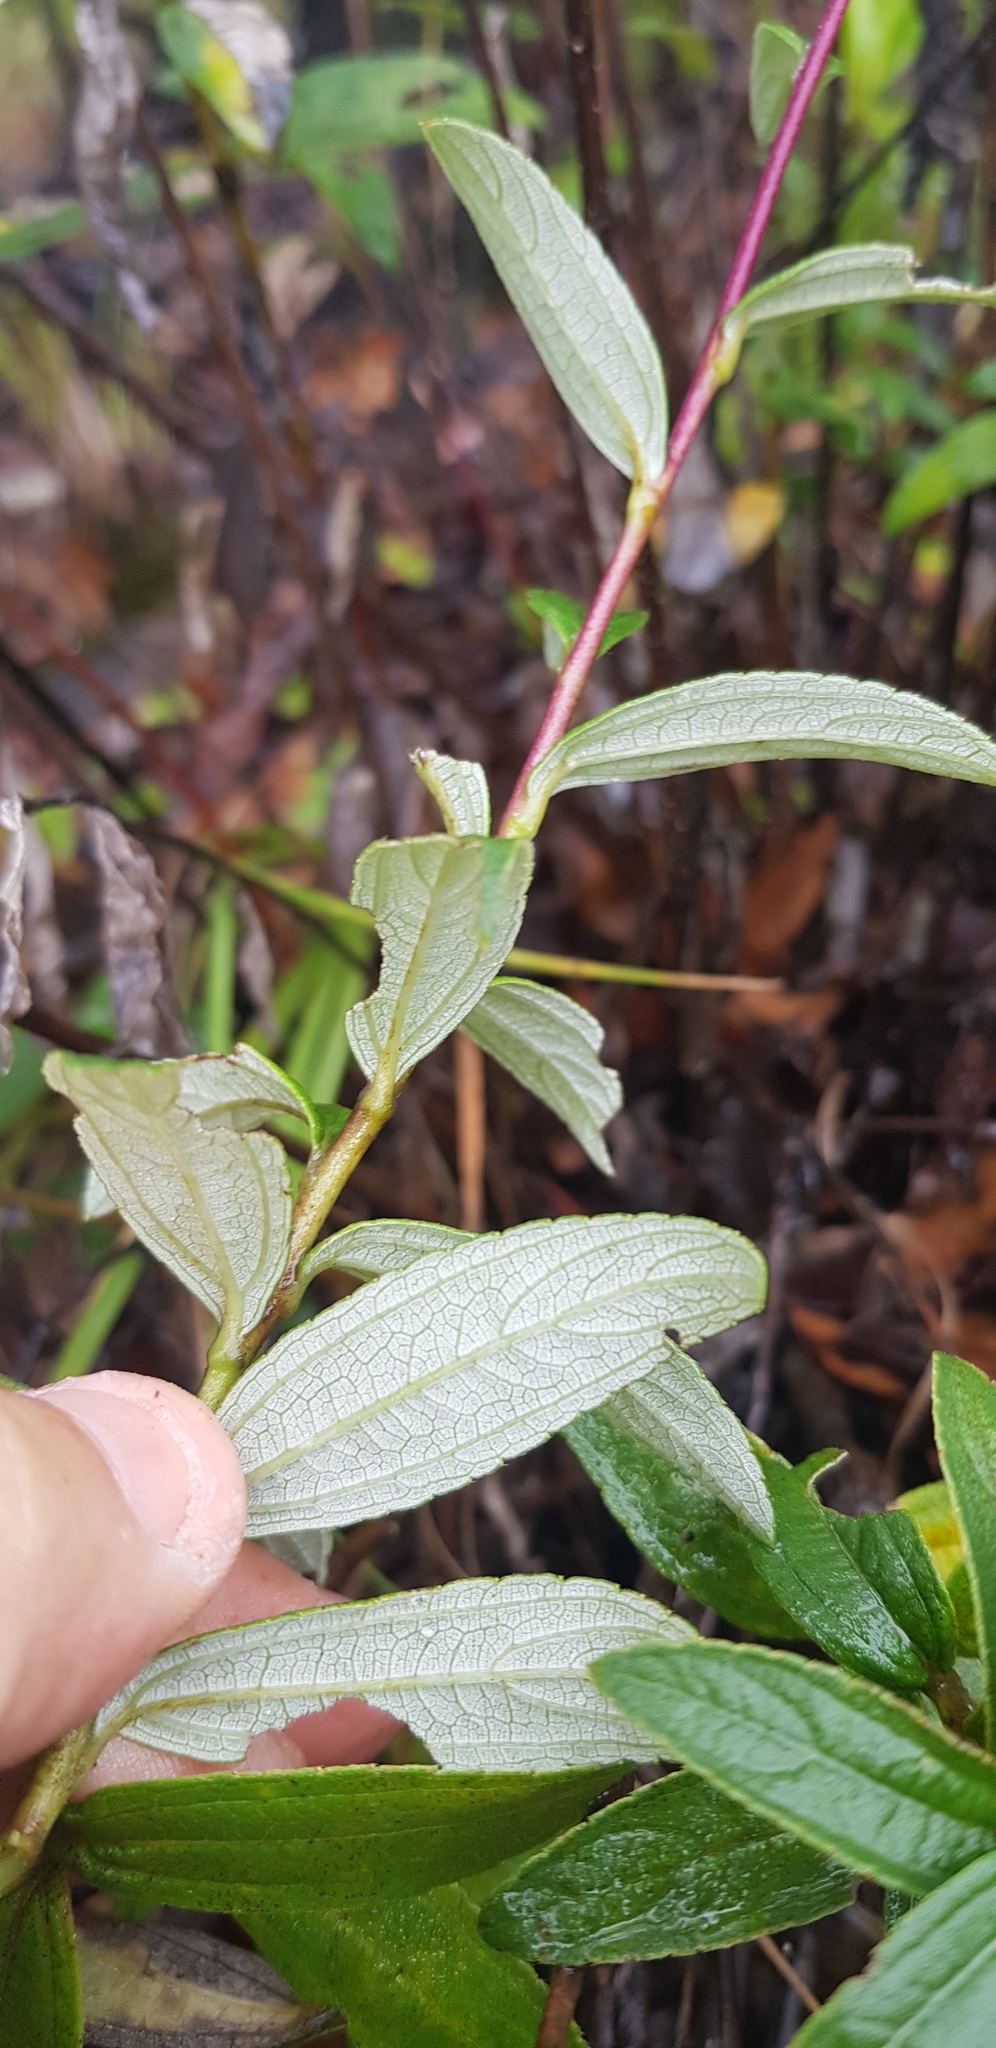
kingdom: Plantae
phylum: Tracheophyta
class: Magnoliopsida
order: Asterales
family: Asteraceae
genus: Aldama
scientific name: Aldama ghiesbreghtii
